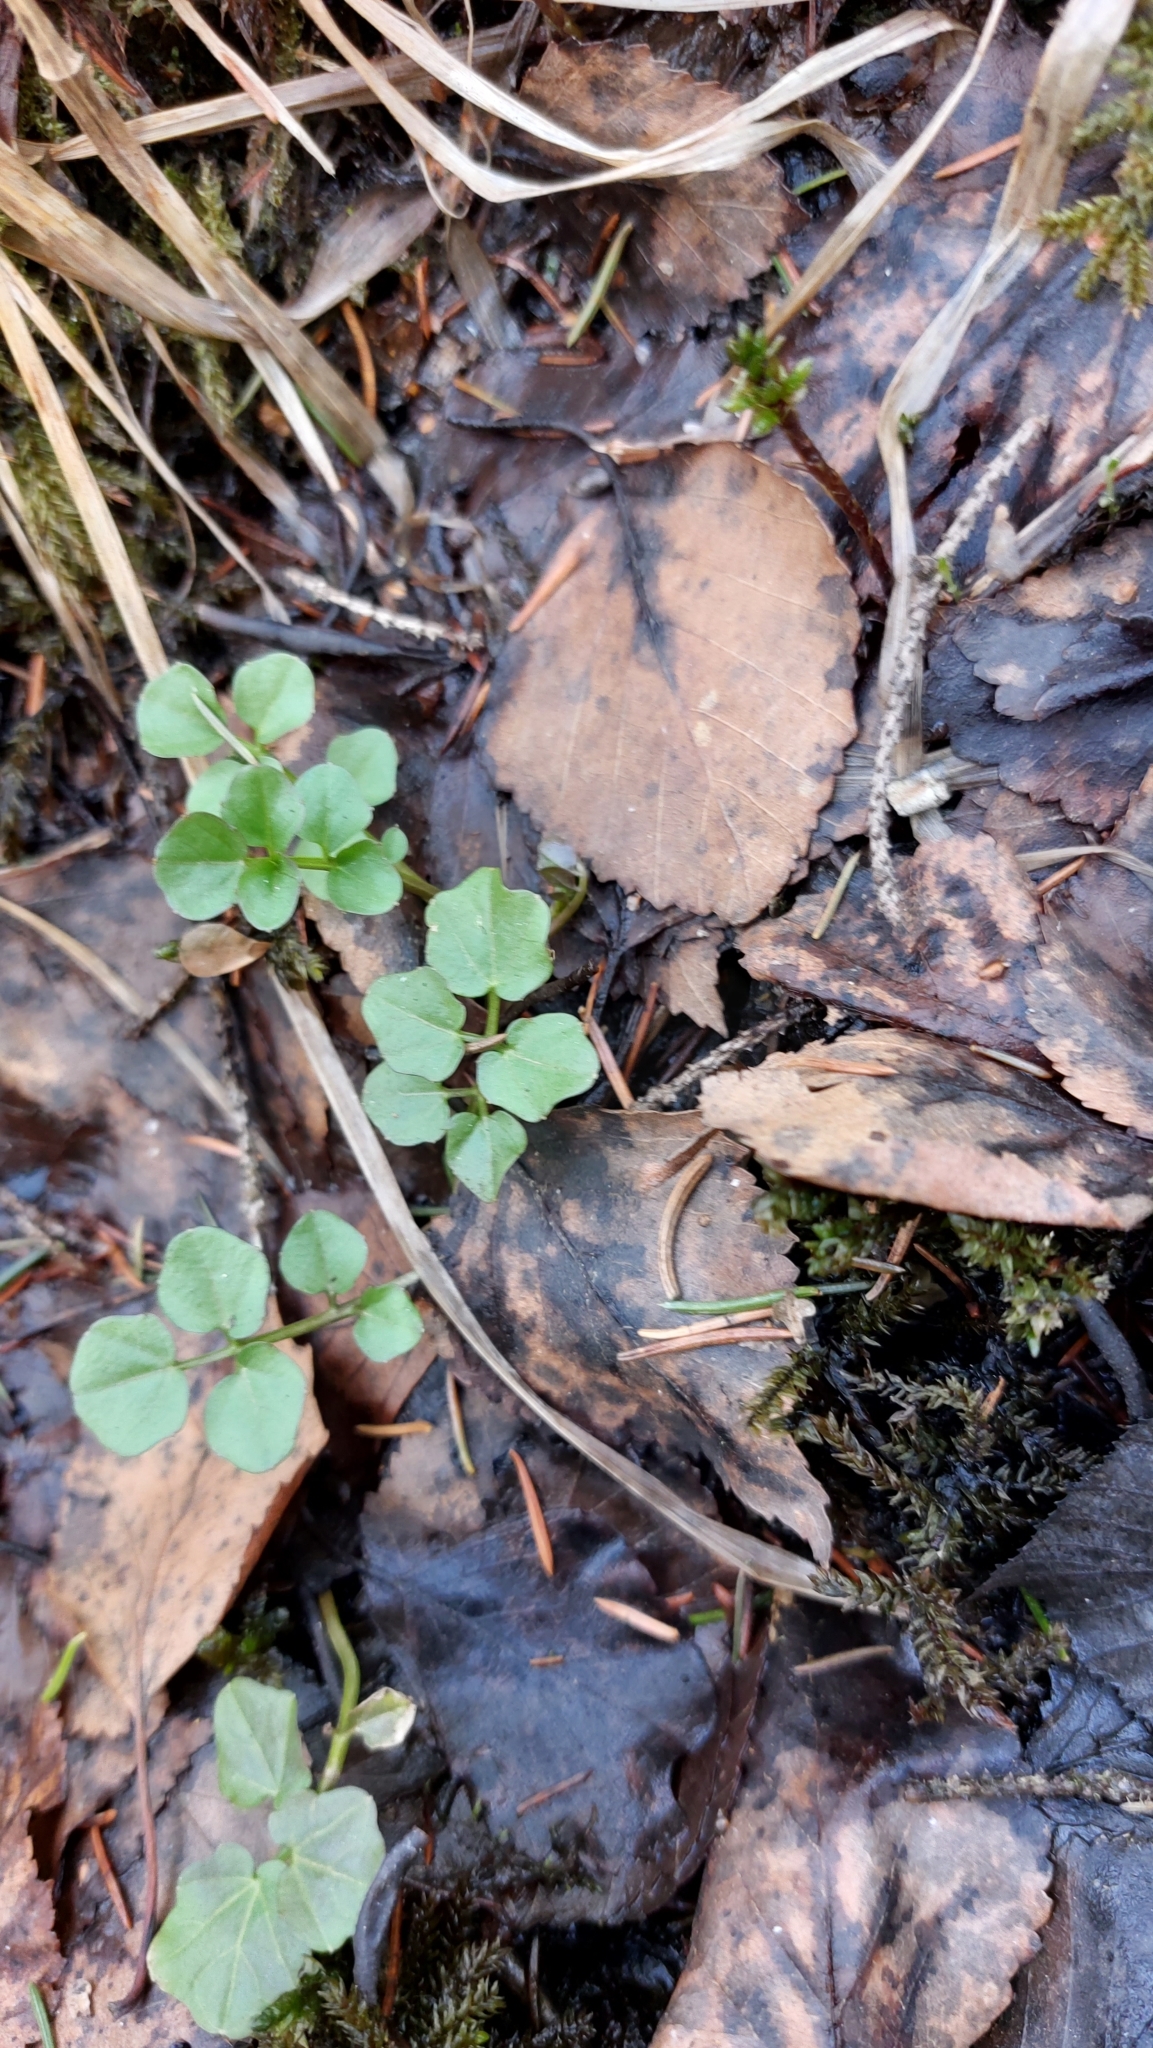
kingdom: Plantae
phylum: Tracheophyta
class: Magnoliopsida
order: Brassicales
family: Brassicaceae
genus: Cardamine
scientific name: Cardamine amara
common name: Large bitter-cress
